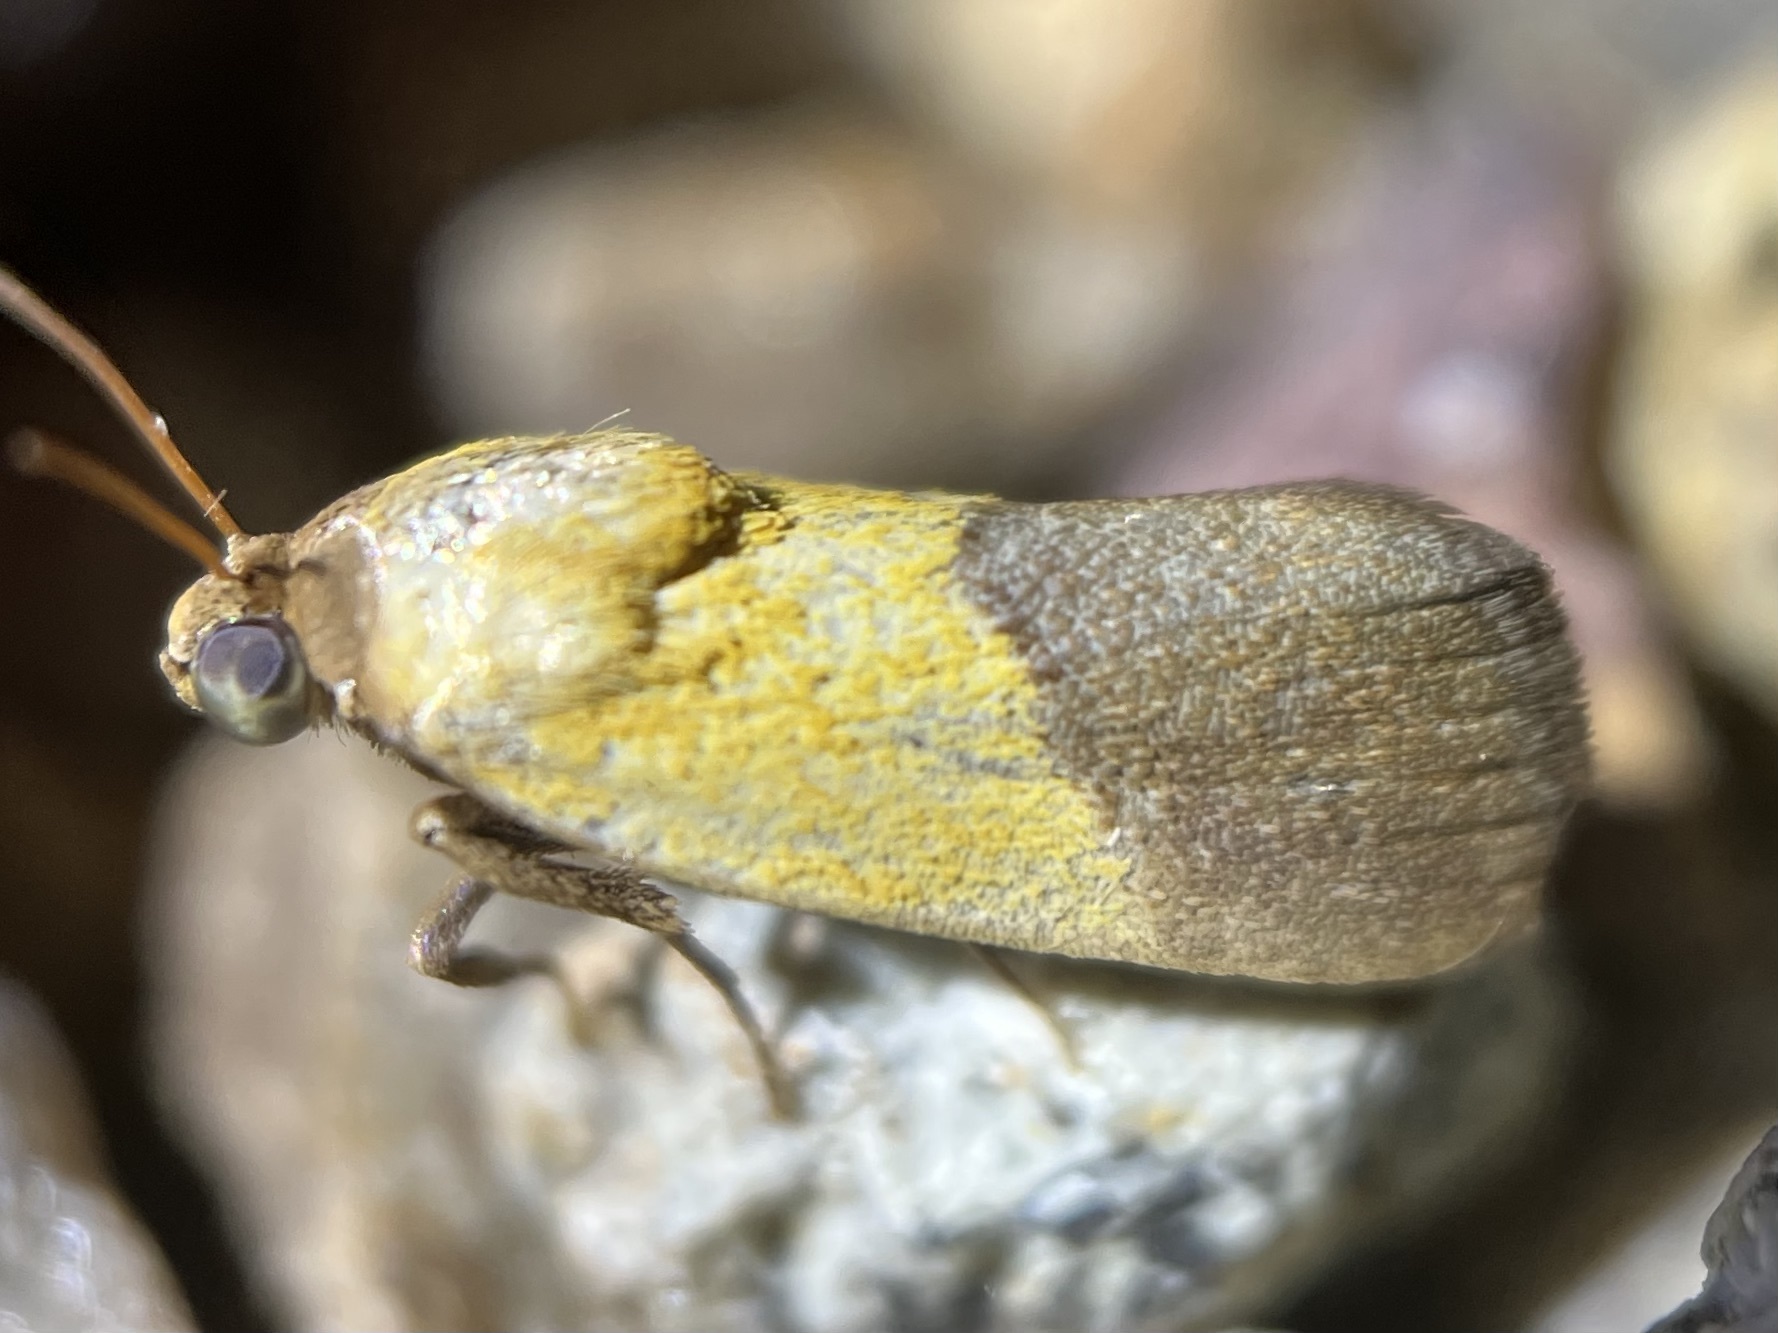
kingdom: Animalia
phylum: Arthropoda
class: Insecta
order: Lepidoptera
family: Noctuidae
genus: Acontia
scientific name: Acontia bicolorata
